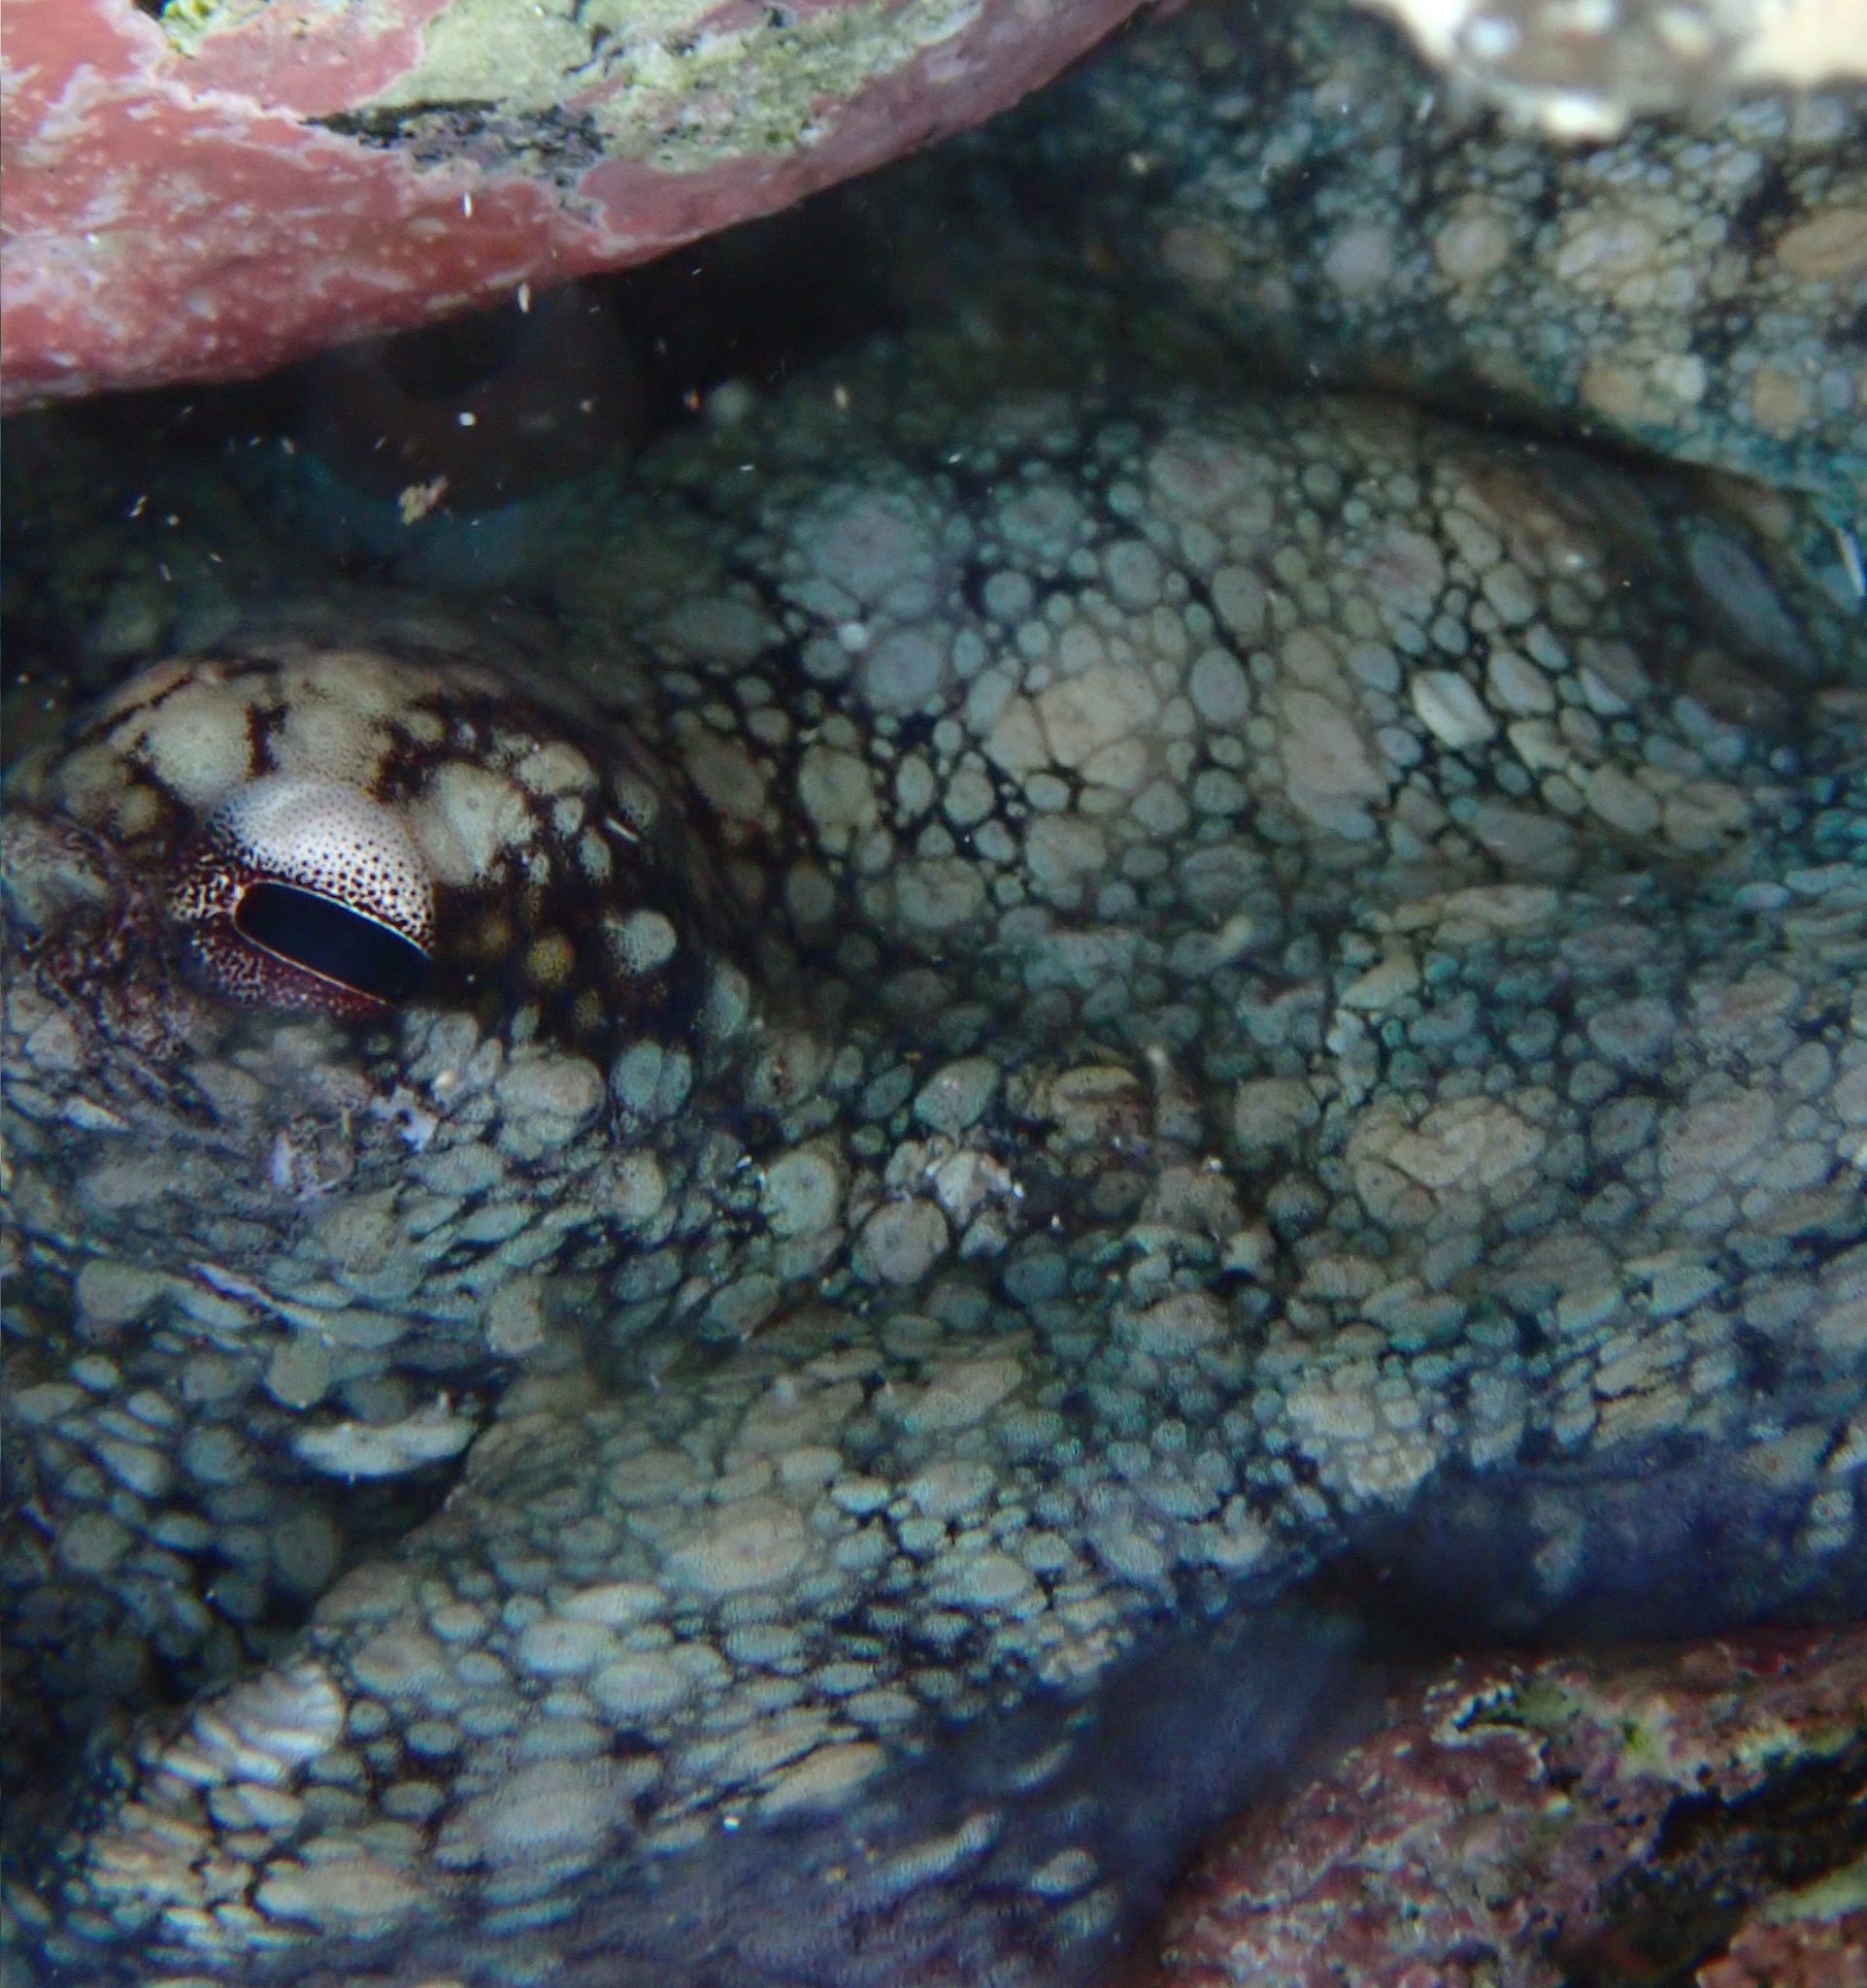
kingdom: Animalia
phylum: Mollusca
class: Cephalopoda
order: Octopoda
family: Octopodidae
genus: Octopus
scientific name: Octopus vulgaris
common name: Common octopus
